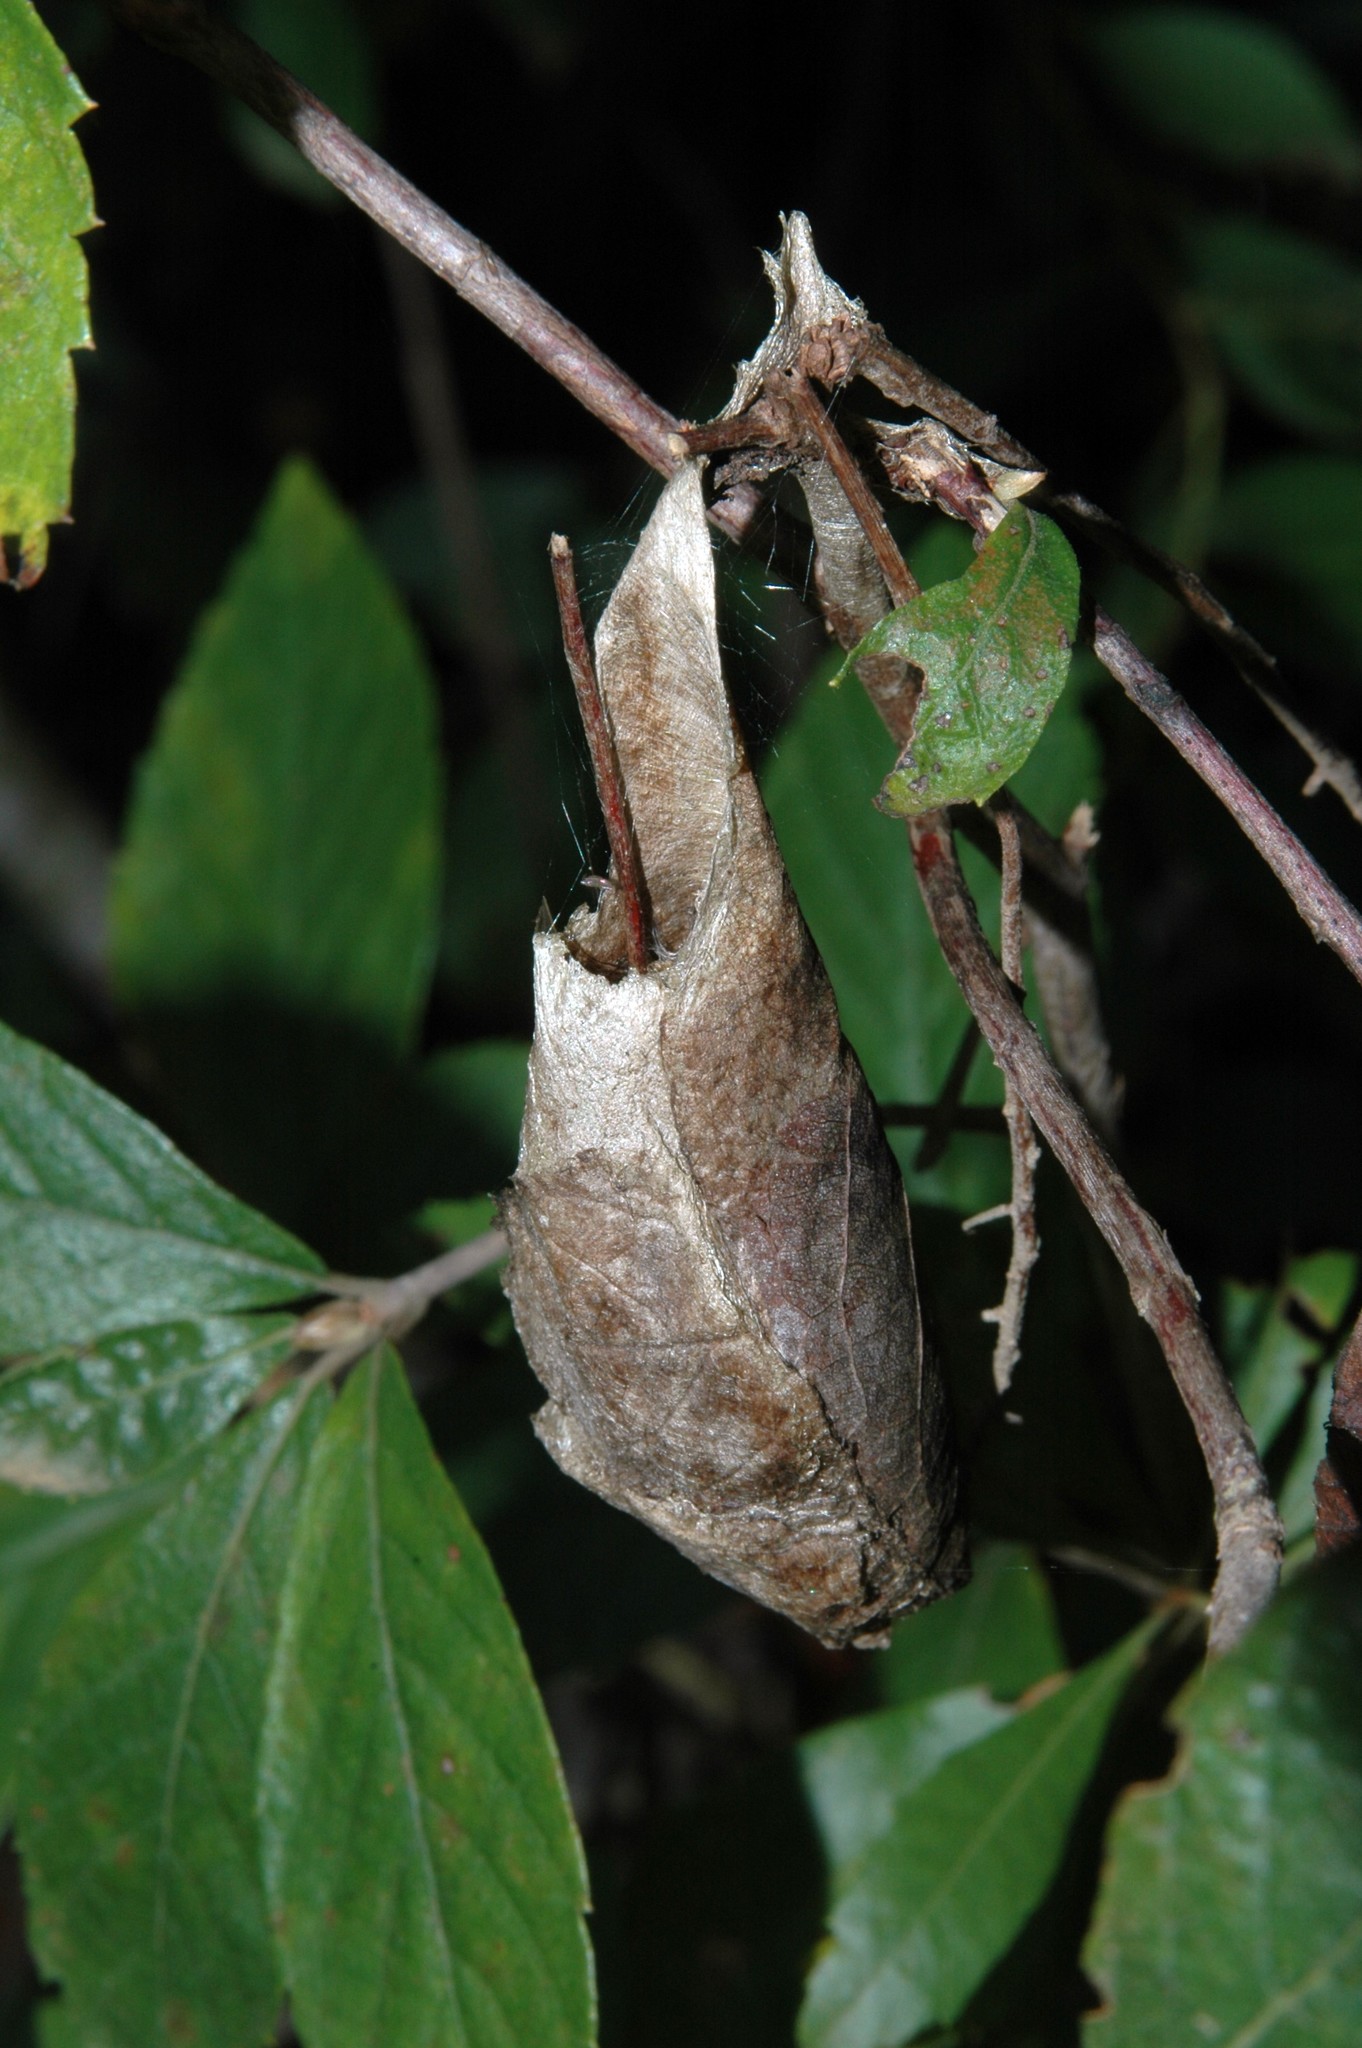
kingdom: Animalia
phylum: Arthropoda
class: Insecta
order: Lepidoptera
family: Saturniidae
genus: Antheraea
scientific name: Antheraea polyphemus
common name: Polyphemus moth
